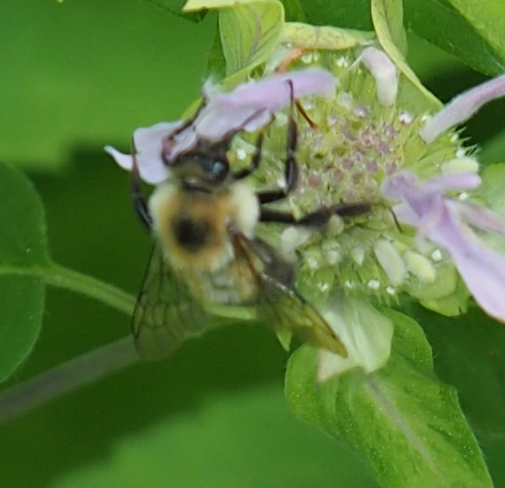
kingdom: Animalia
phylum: Arthropoda
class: Insecta
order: Hymenoptera
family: Apidae
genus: Bombus
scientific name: Bombus bimaculatus
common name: Two-spotted bumble bee
